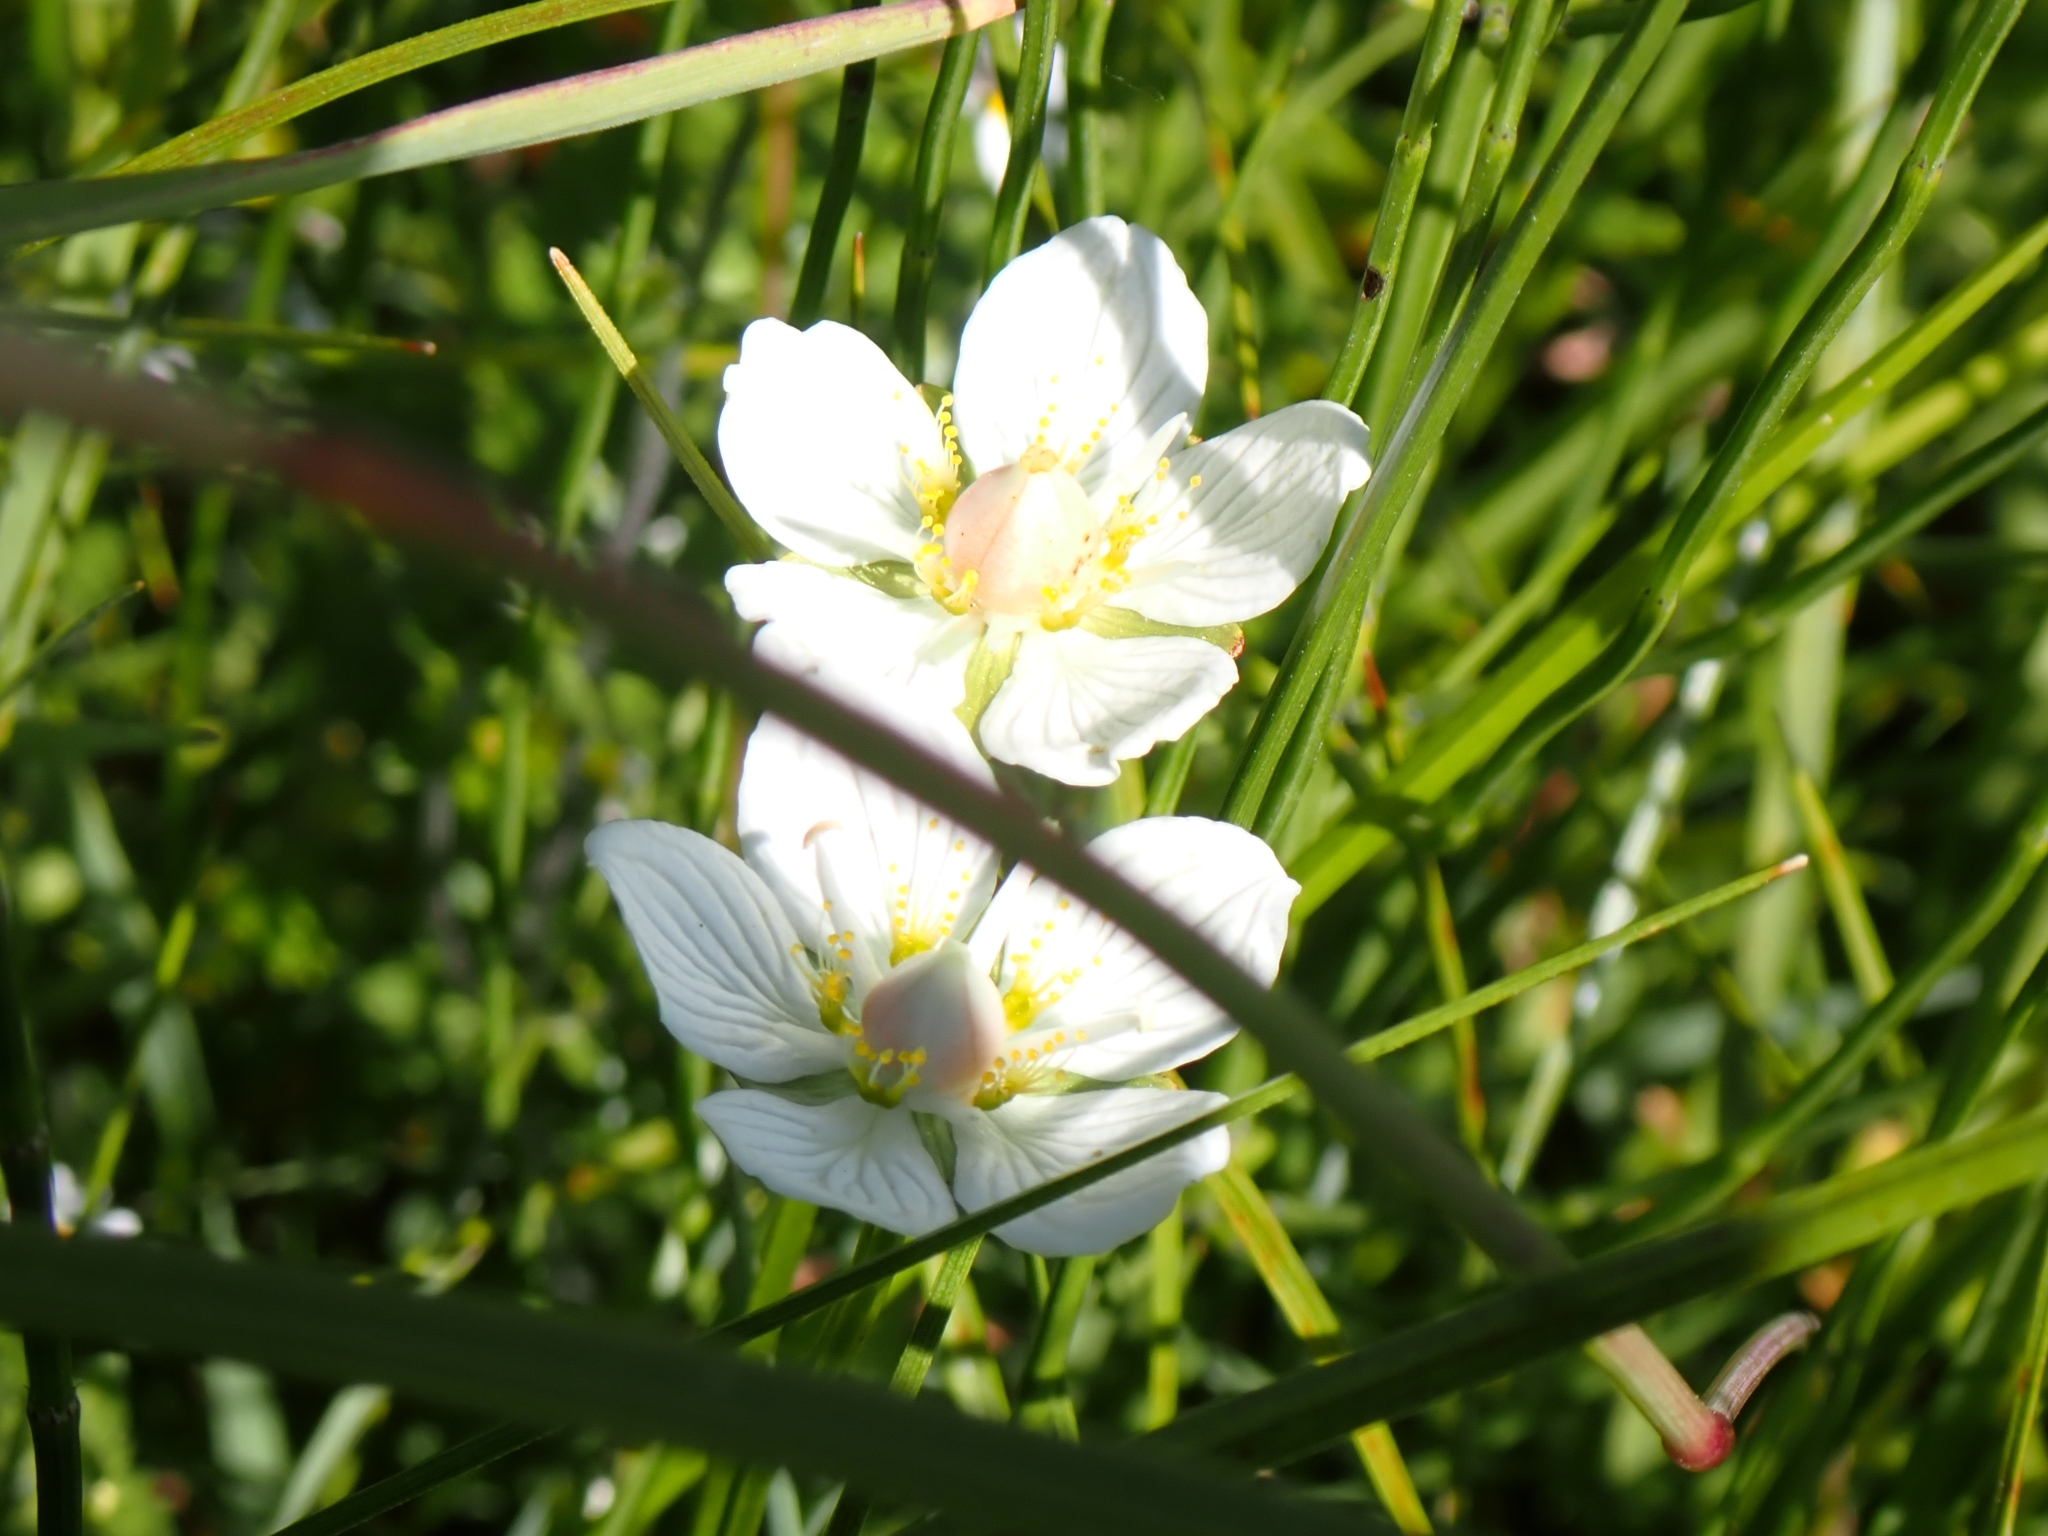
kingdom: Plantae
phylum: Tracheophyta
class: Magnoliopsida
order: Celastrales
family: Parnassiaceae
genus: Parnassia
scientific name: Parnassia palustris
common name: Grass-of-parnassus
